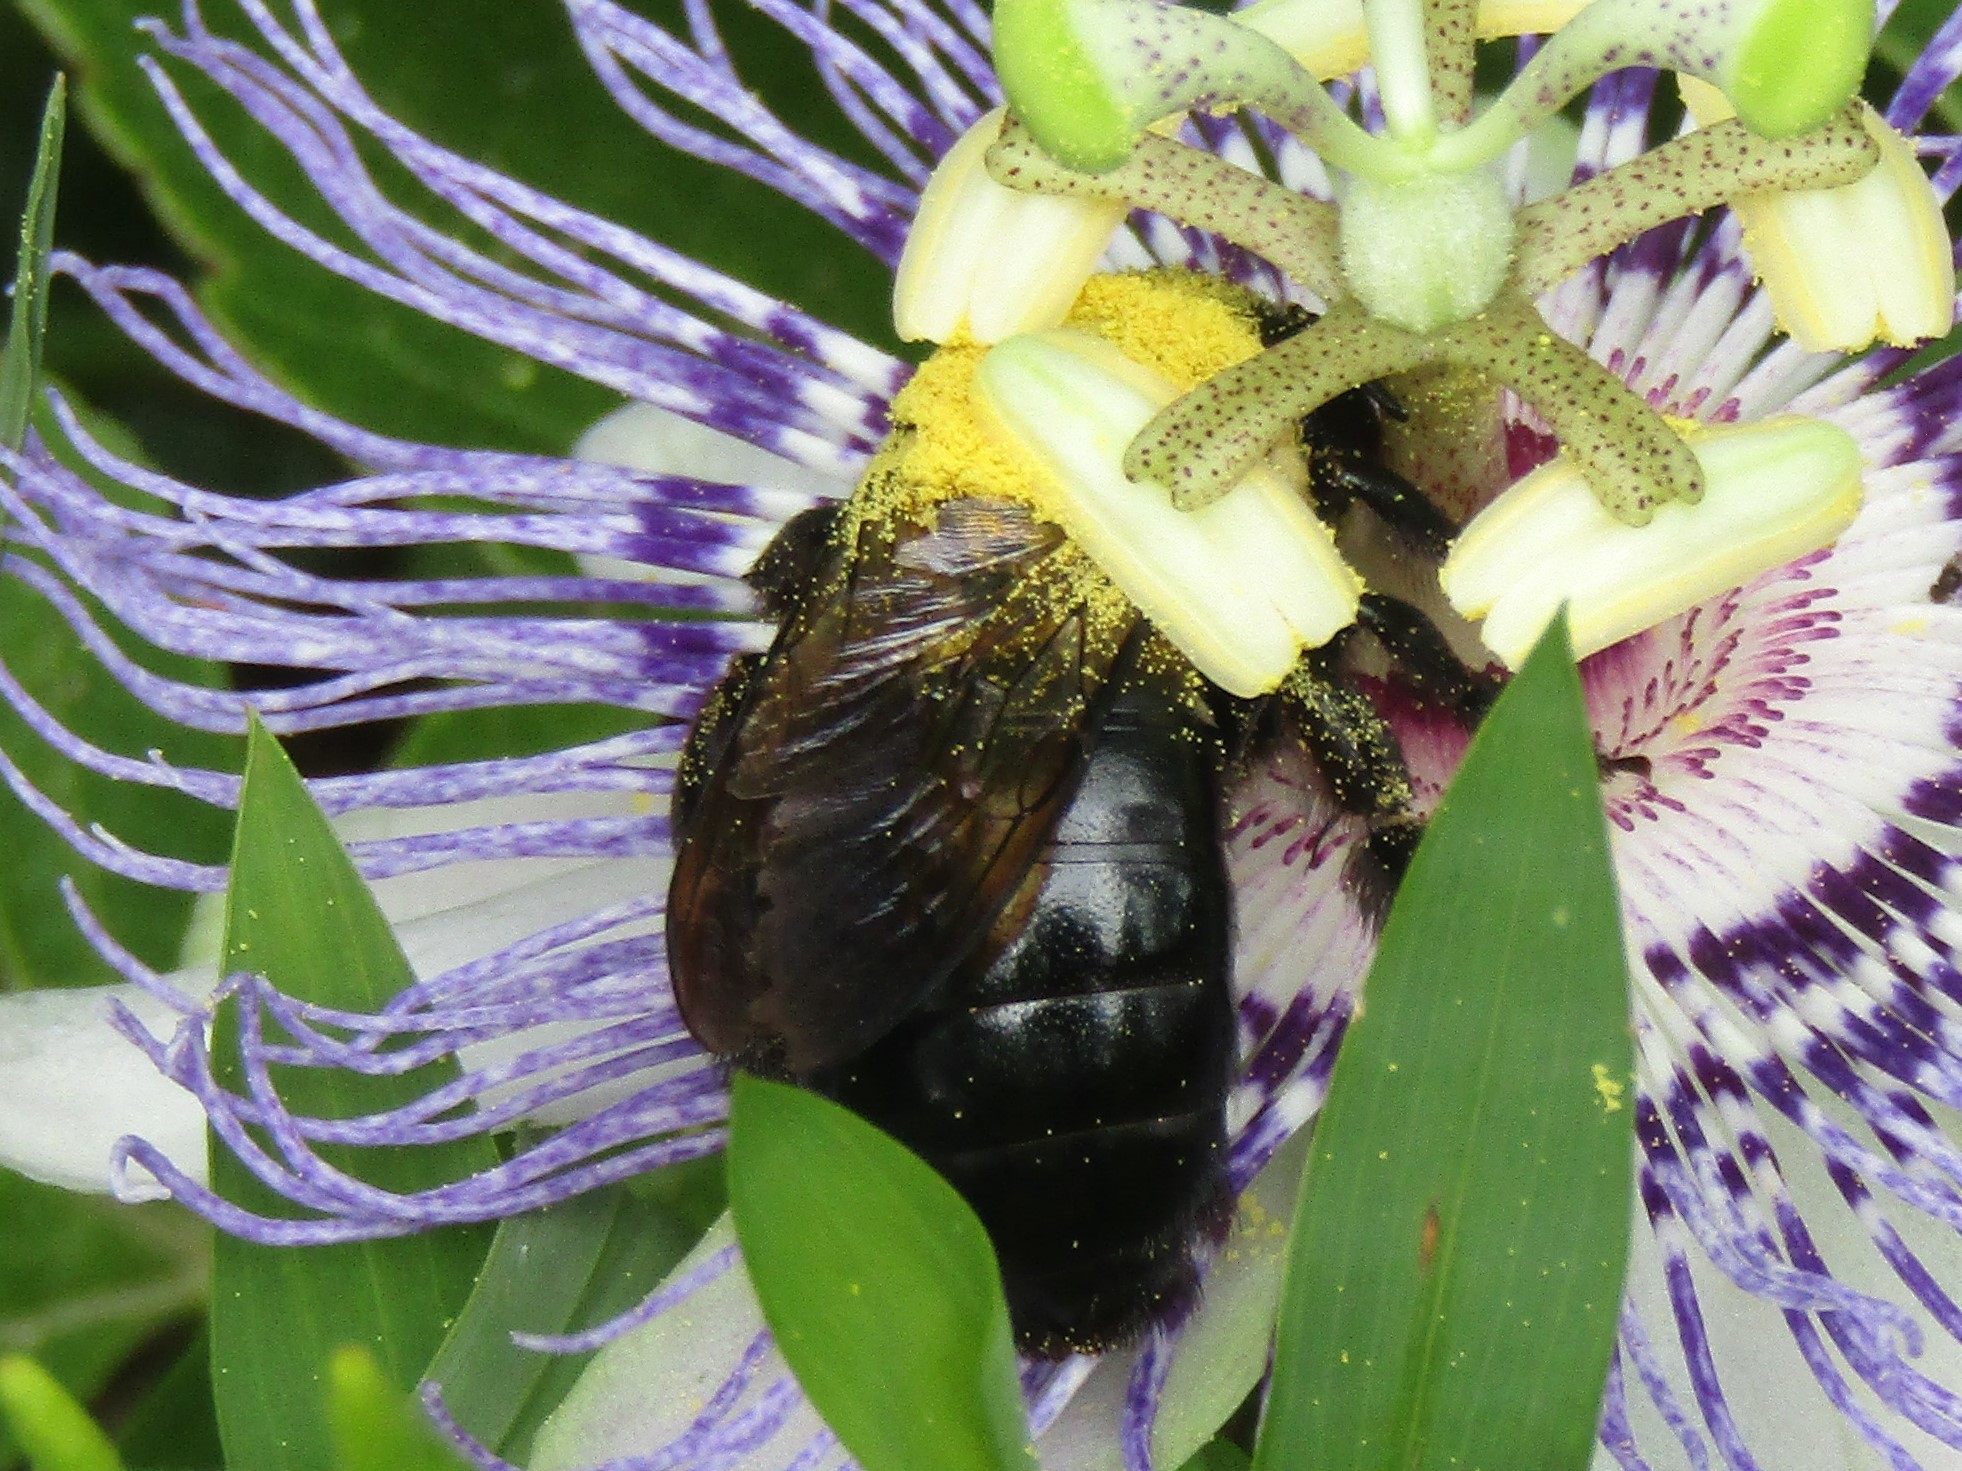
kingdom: Animalia
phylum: Arthropoda
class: Insecta
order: Hymenoptera
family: Apidae
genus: Xylocopa
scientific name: Xylocopa virginica
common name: Carpenter bee
